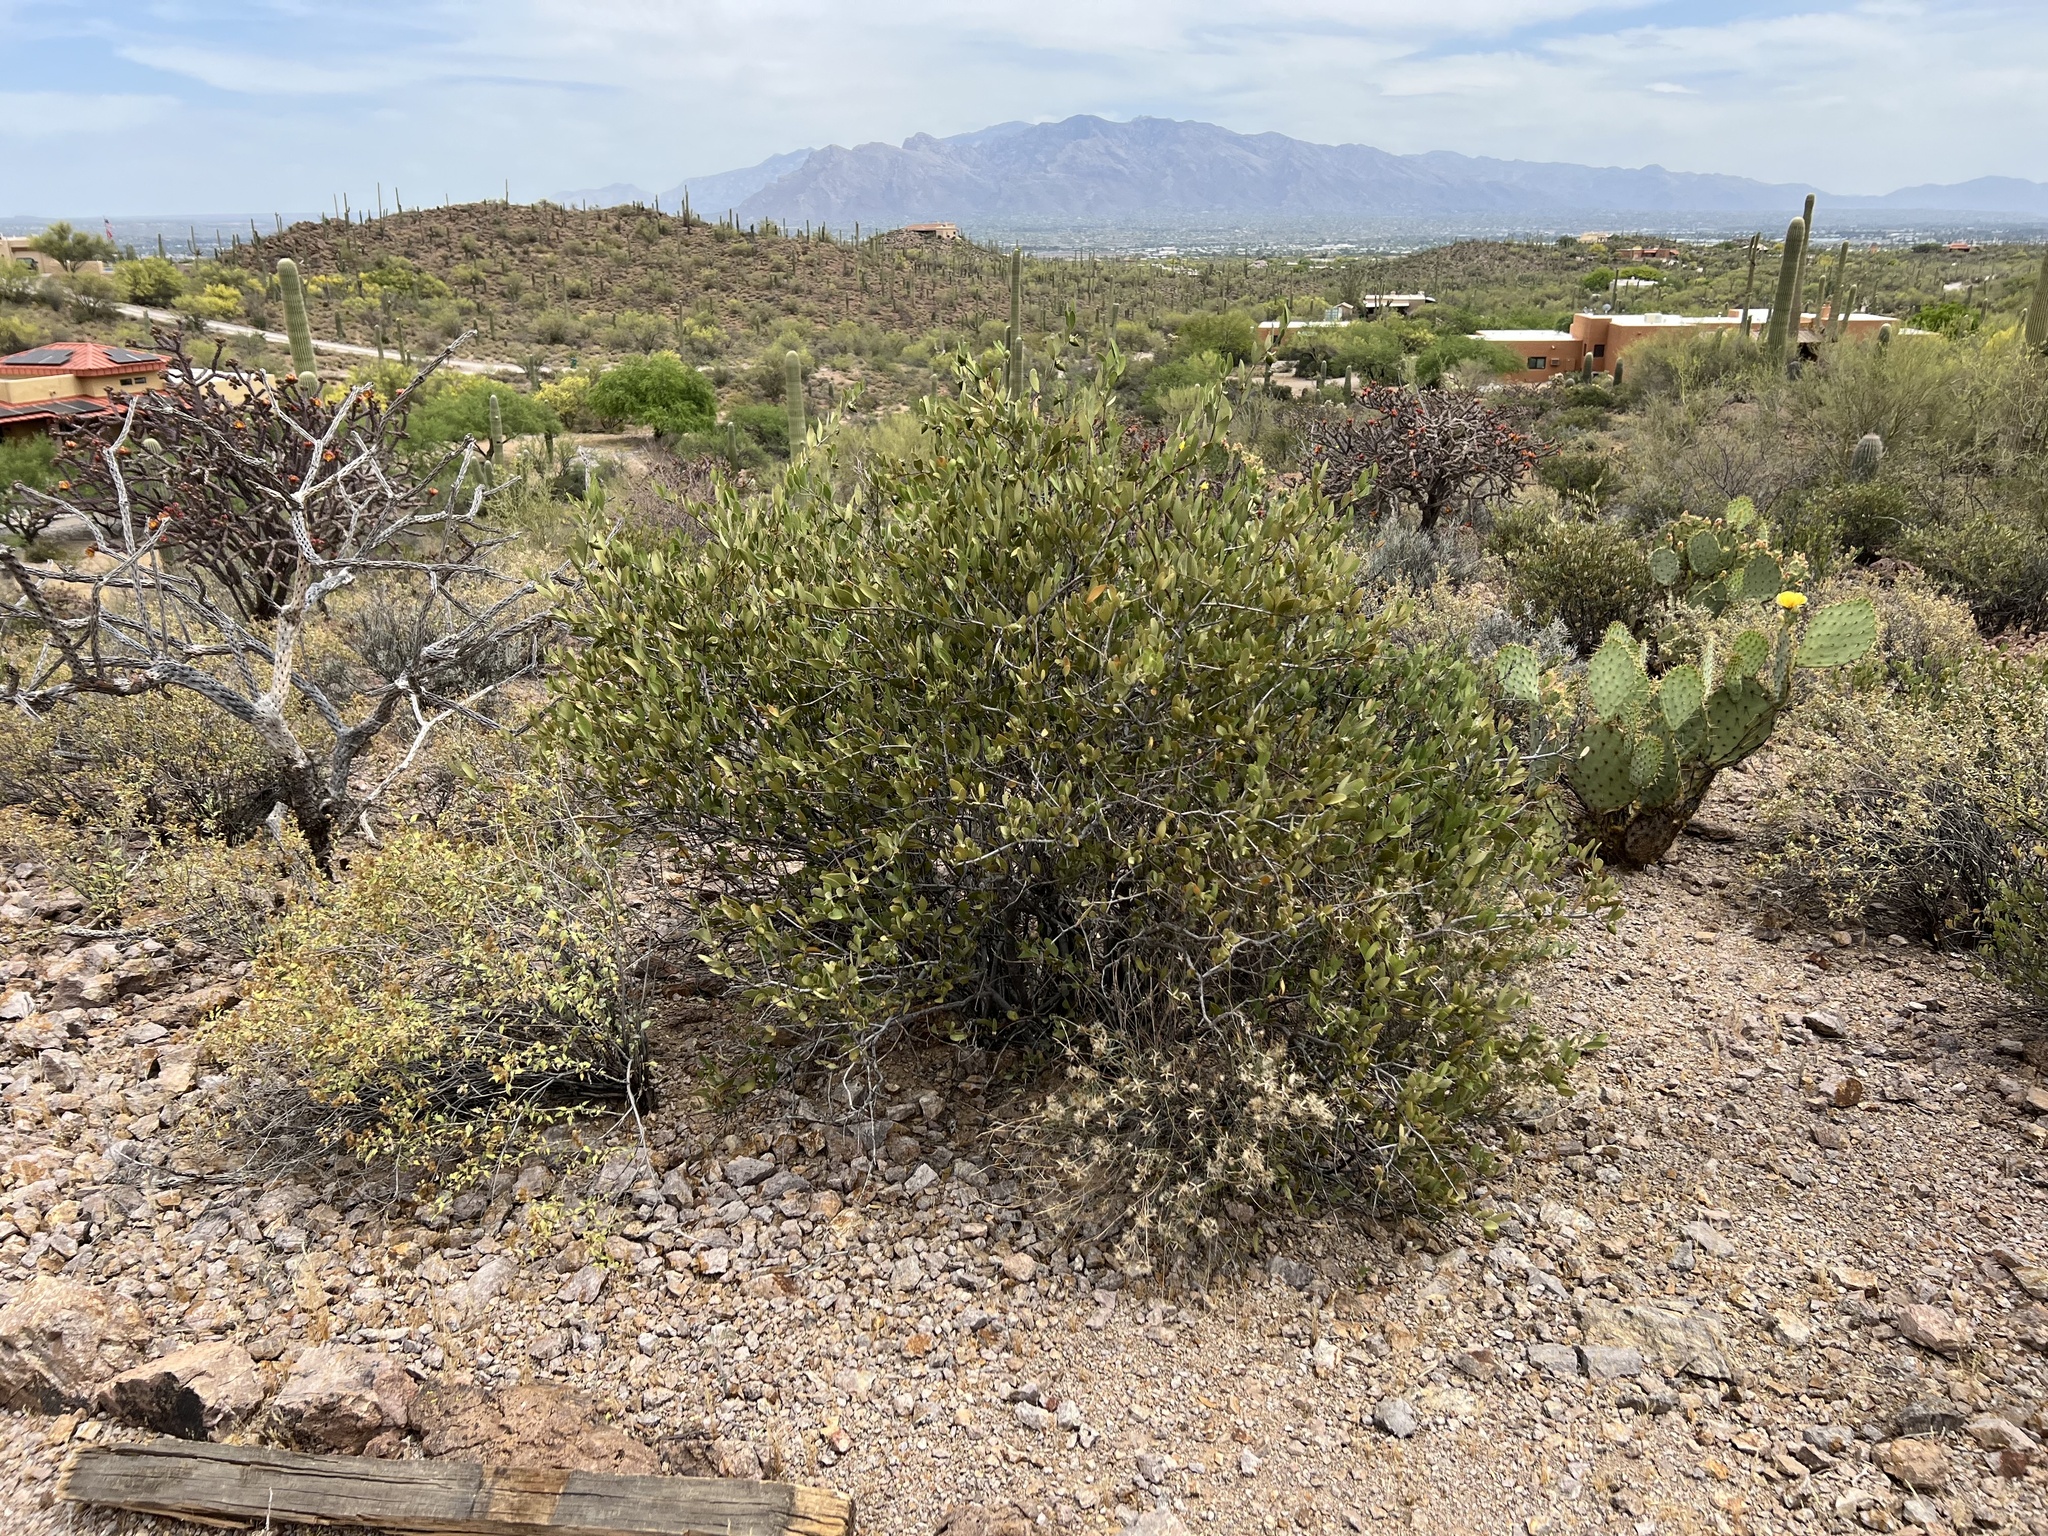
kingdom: Plantae
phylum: Tracheophyta
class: Magnoliopsida
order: Caryophyllales
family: Simmondsiaceae
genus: Simmondsia
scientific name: Simmondsia chinensis
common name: Jojoba
